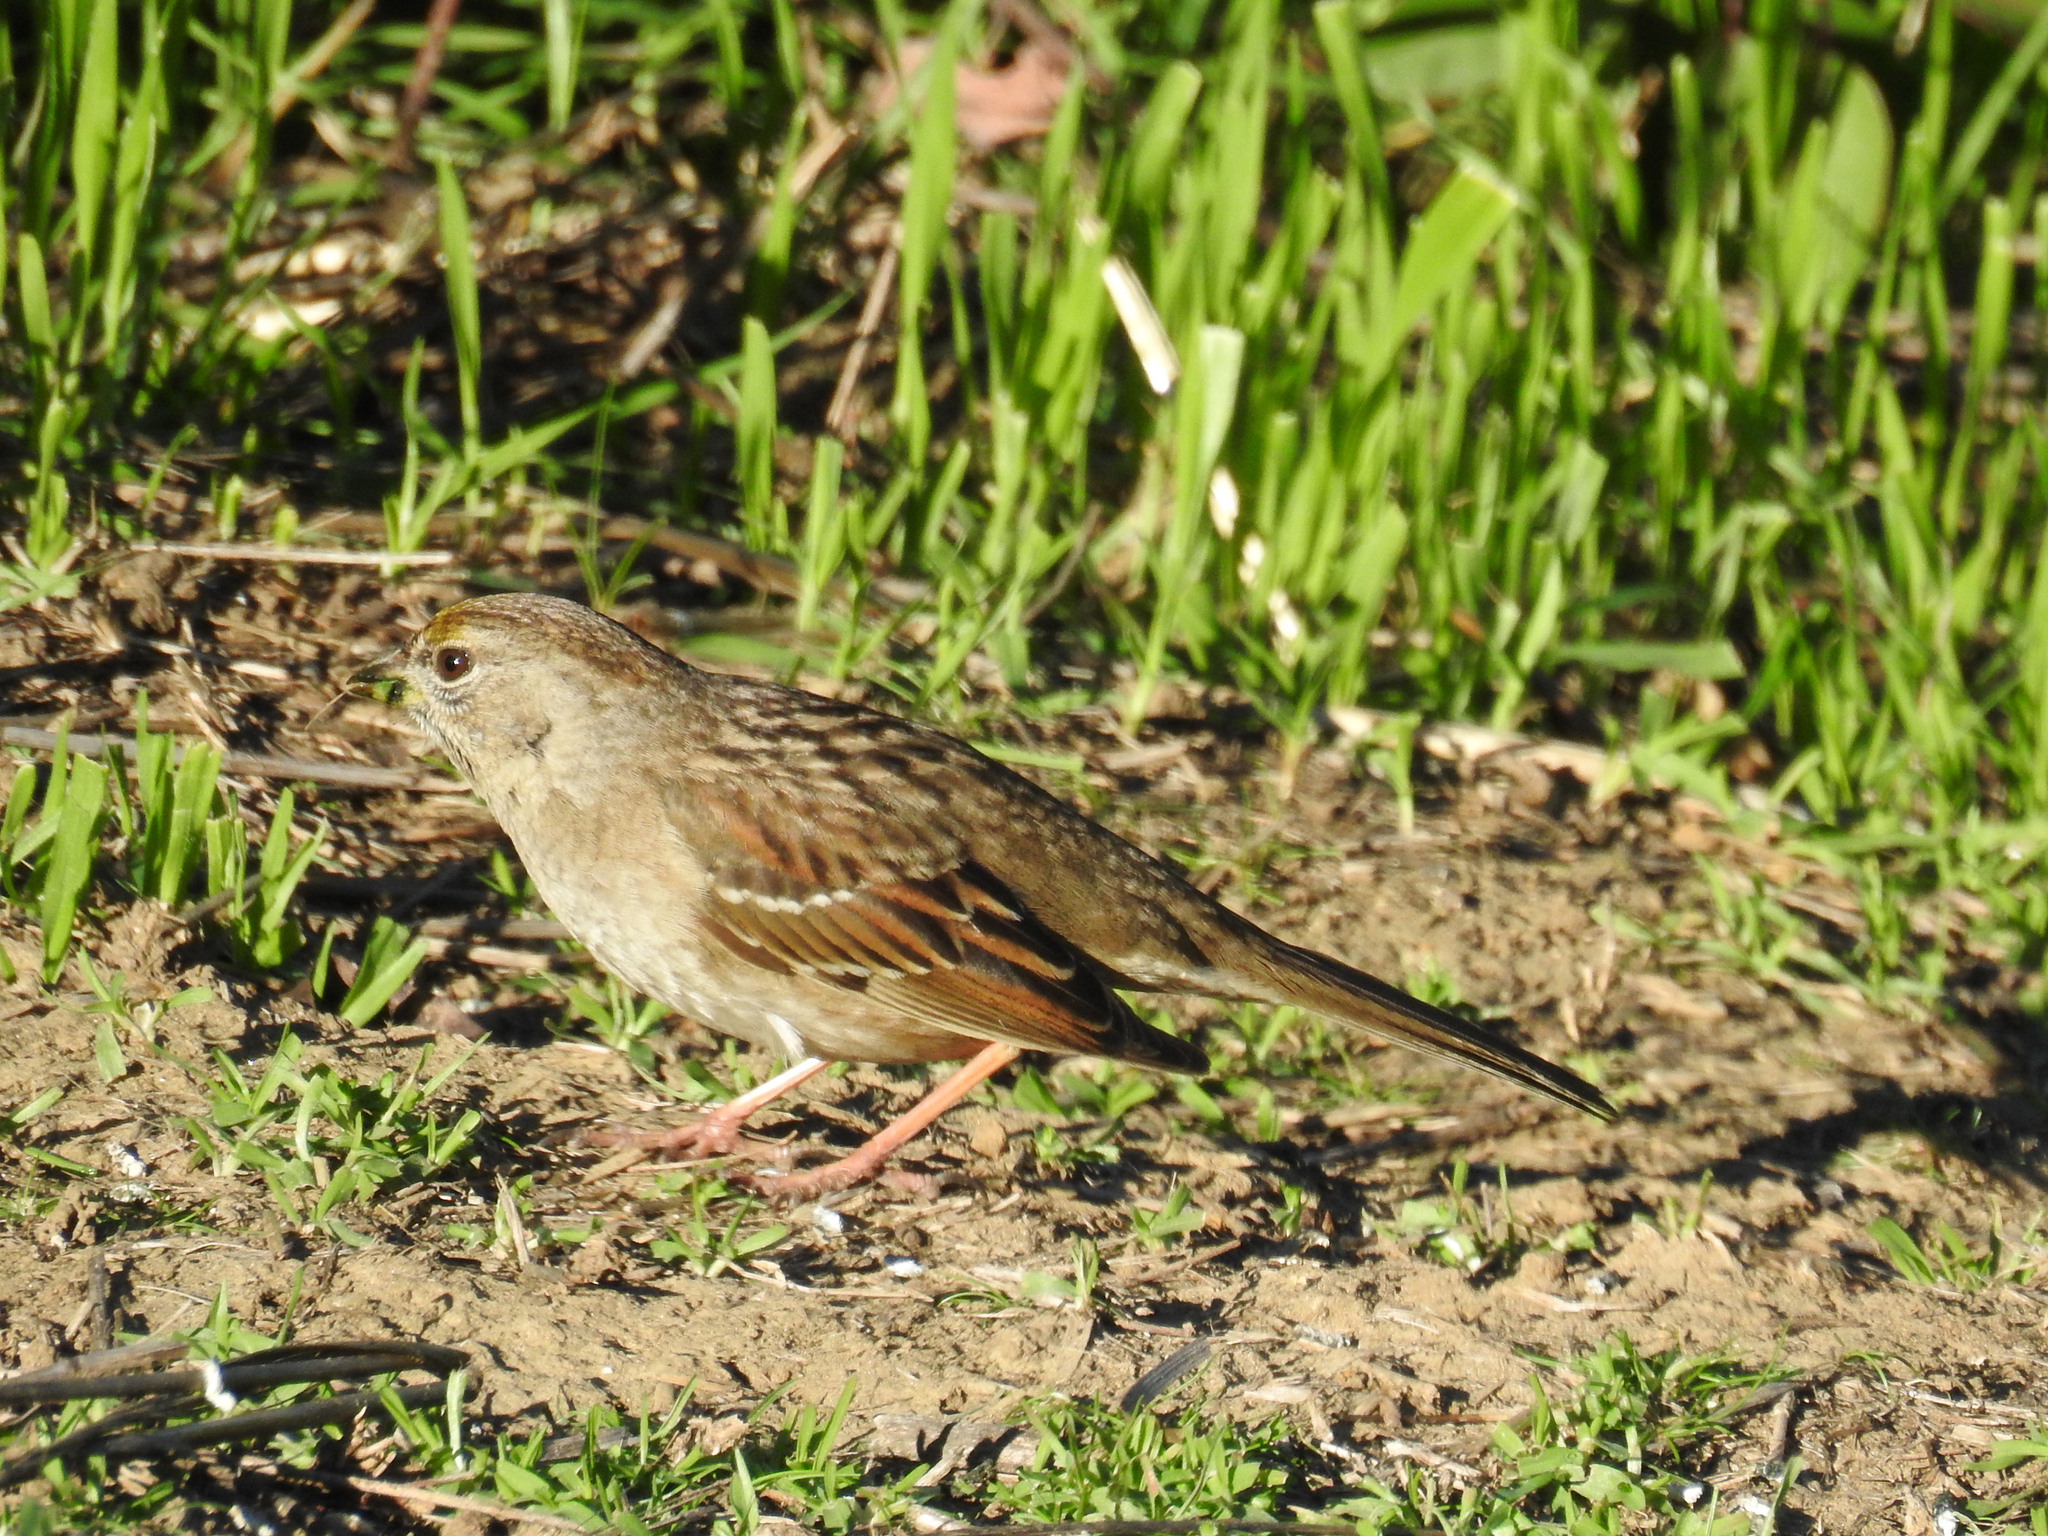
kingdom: Animalia
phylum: Chordata
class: Aves
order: Passeriformes
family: Passerellidae
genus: Zonotrichia
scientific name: Zonotrichia atricapilla
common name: Golden-crowned sparrow
